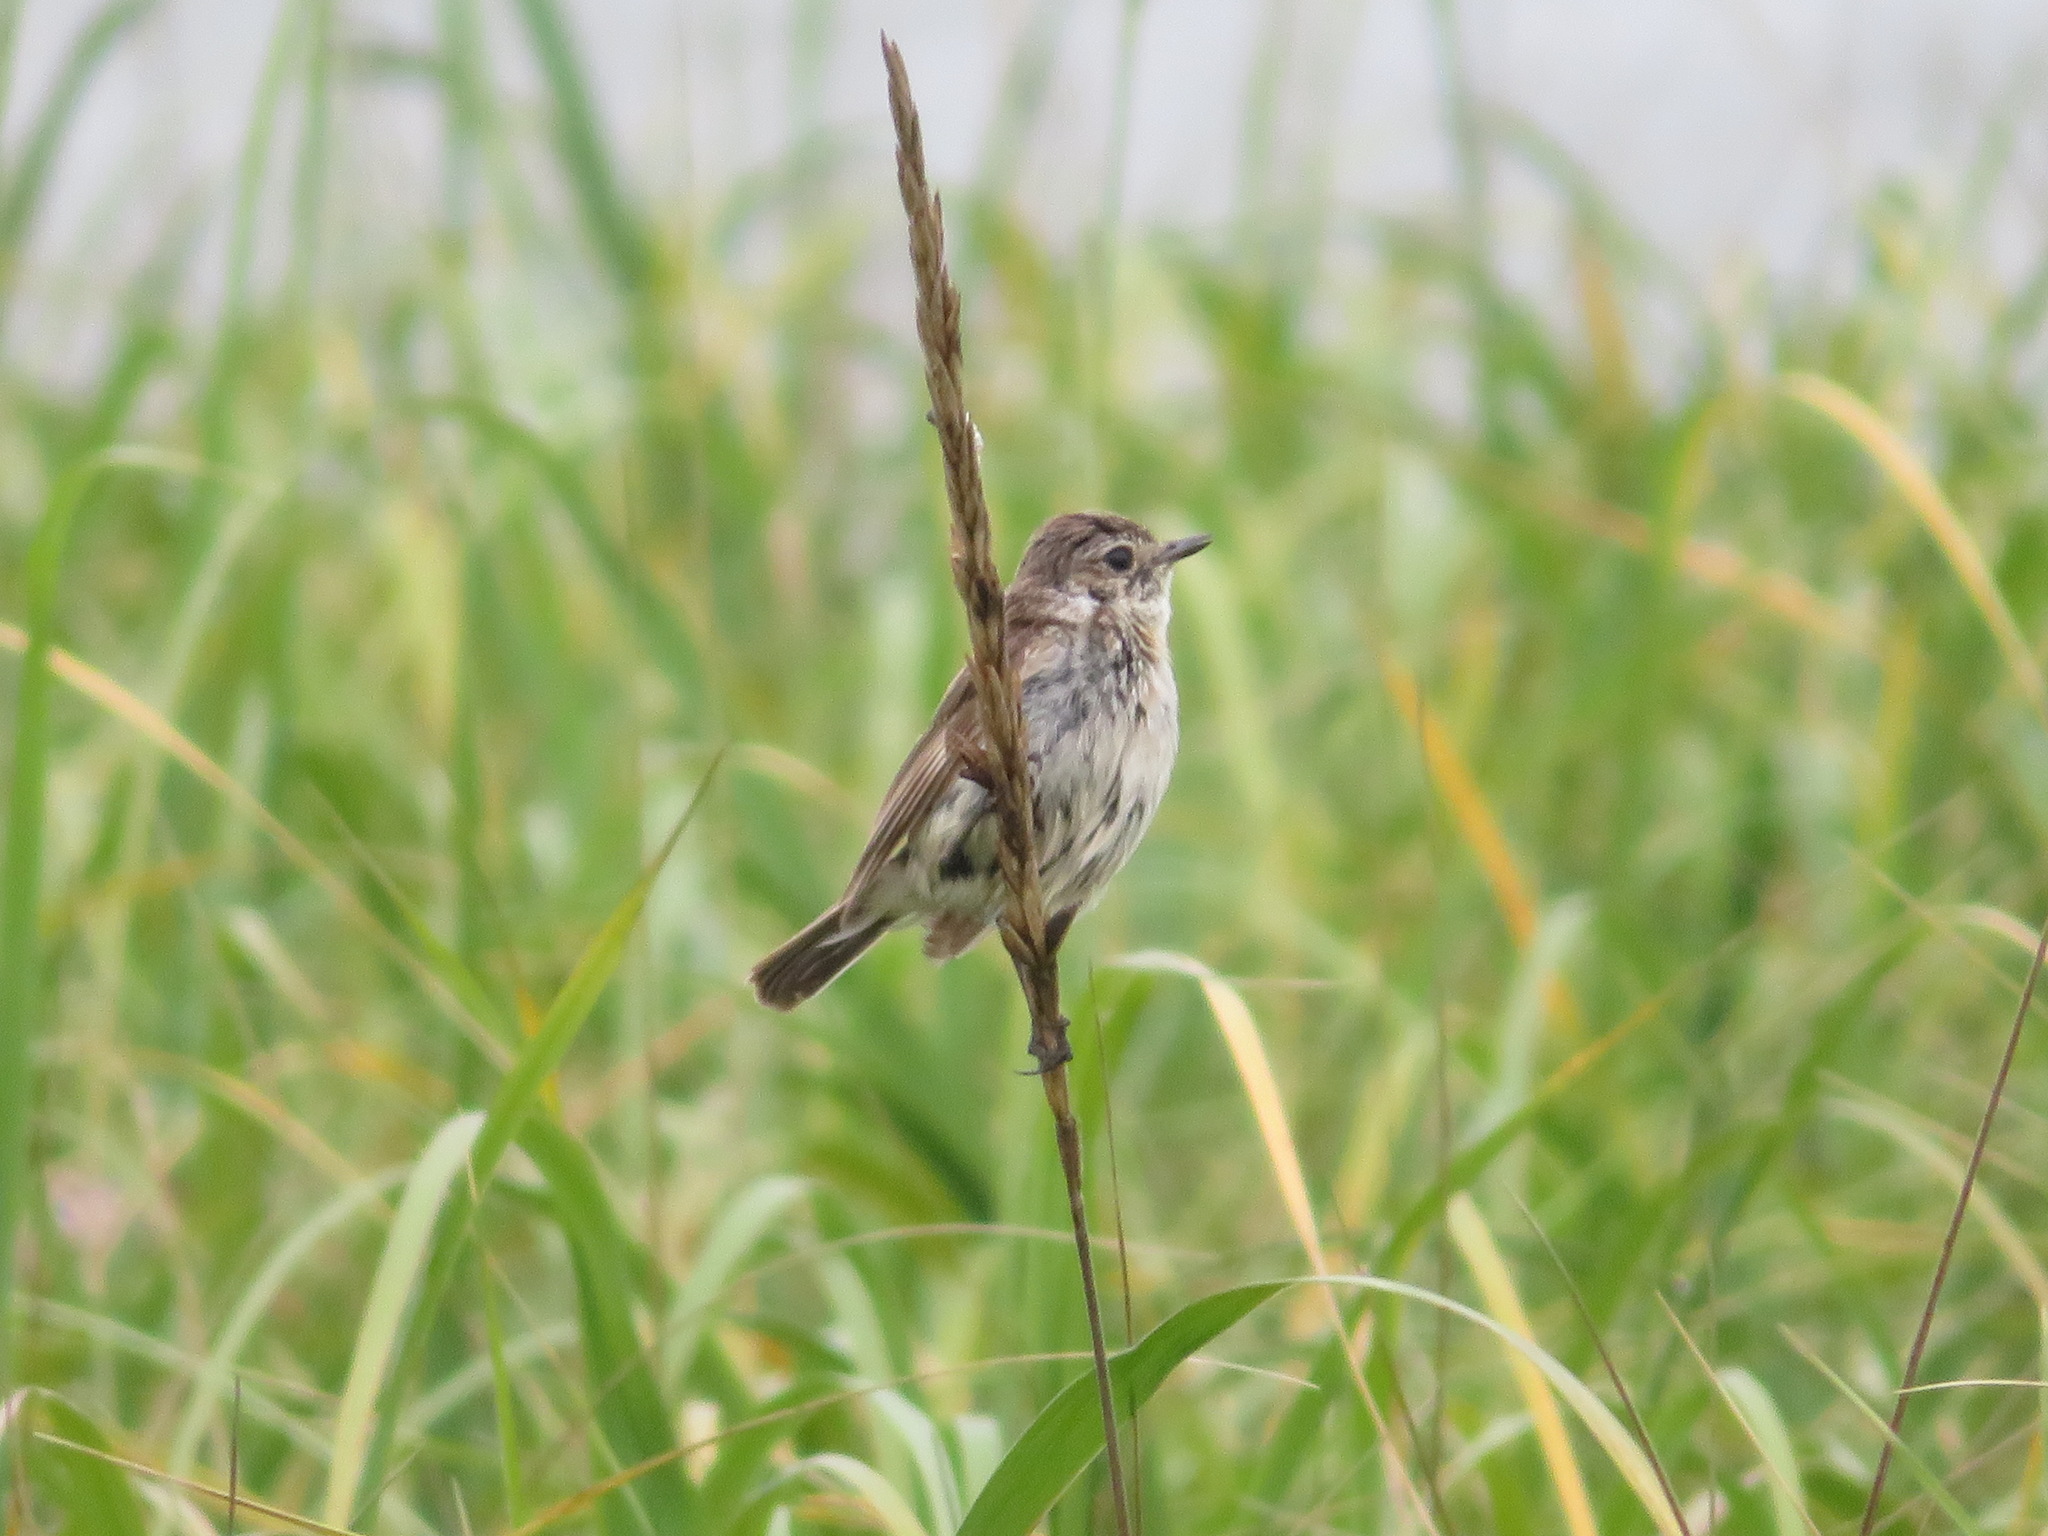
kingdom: Animalia
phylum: Chordata
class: Aves
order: Passeriformes
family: Muscicapidae
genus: Saxicola
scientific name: Saxicola stejnegeri
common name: Stejneger's stonechat
